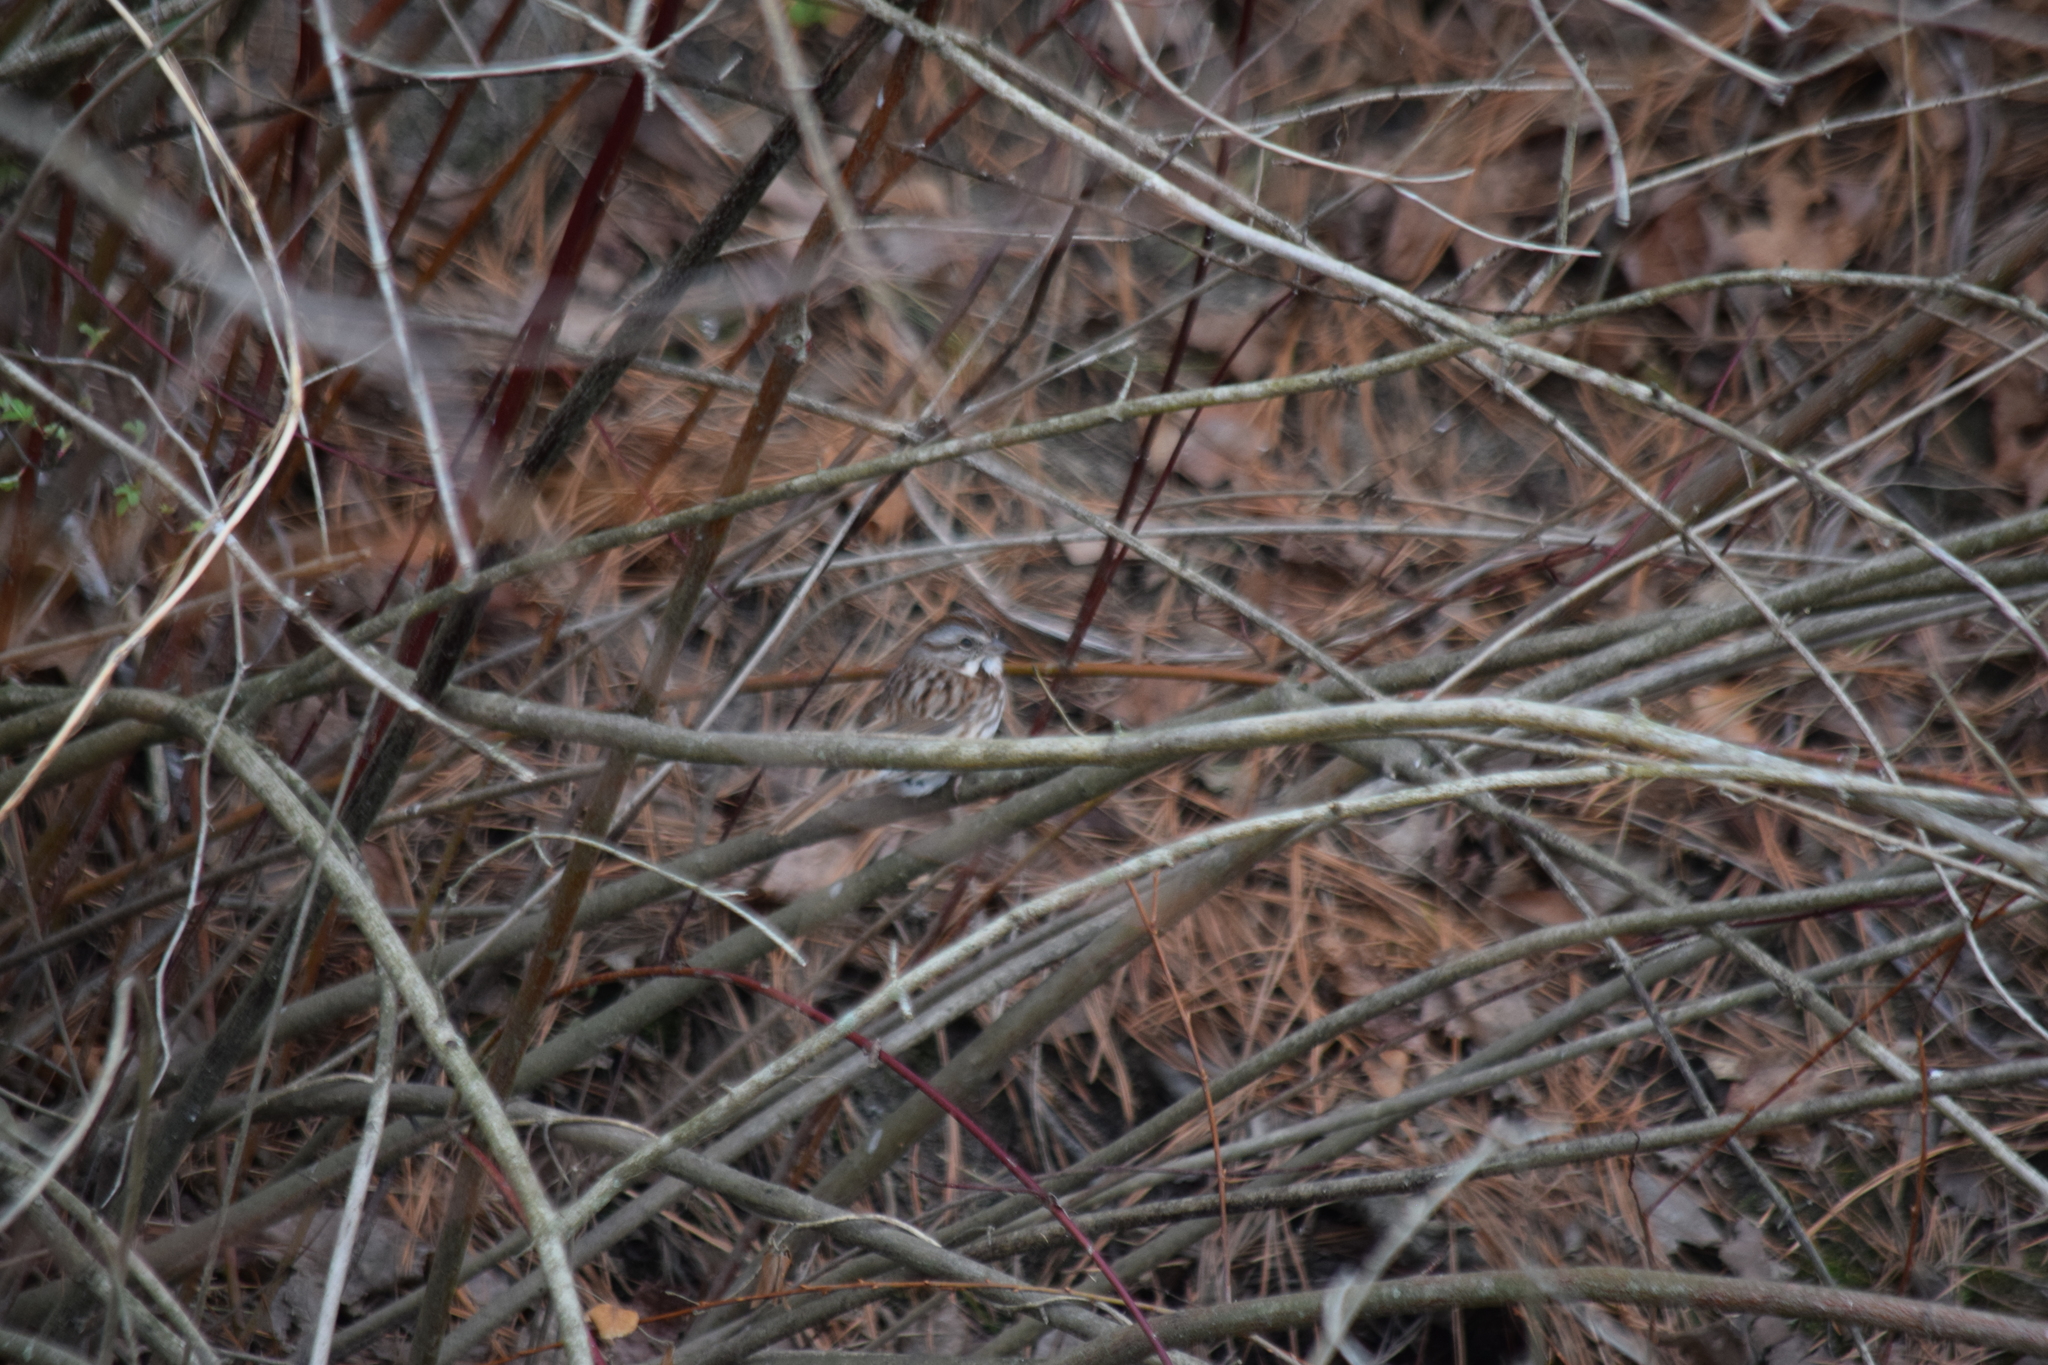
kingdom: Animalia
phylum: Chordata
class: Aves
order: Passeriformes
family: Passerellidae
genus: Melospiza
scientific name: Melospiza melodia
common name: Song sparrow
